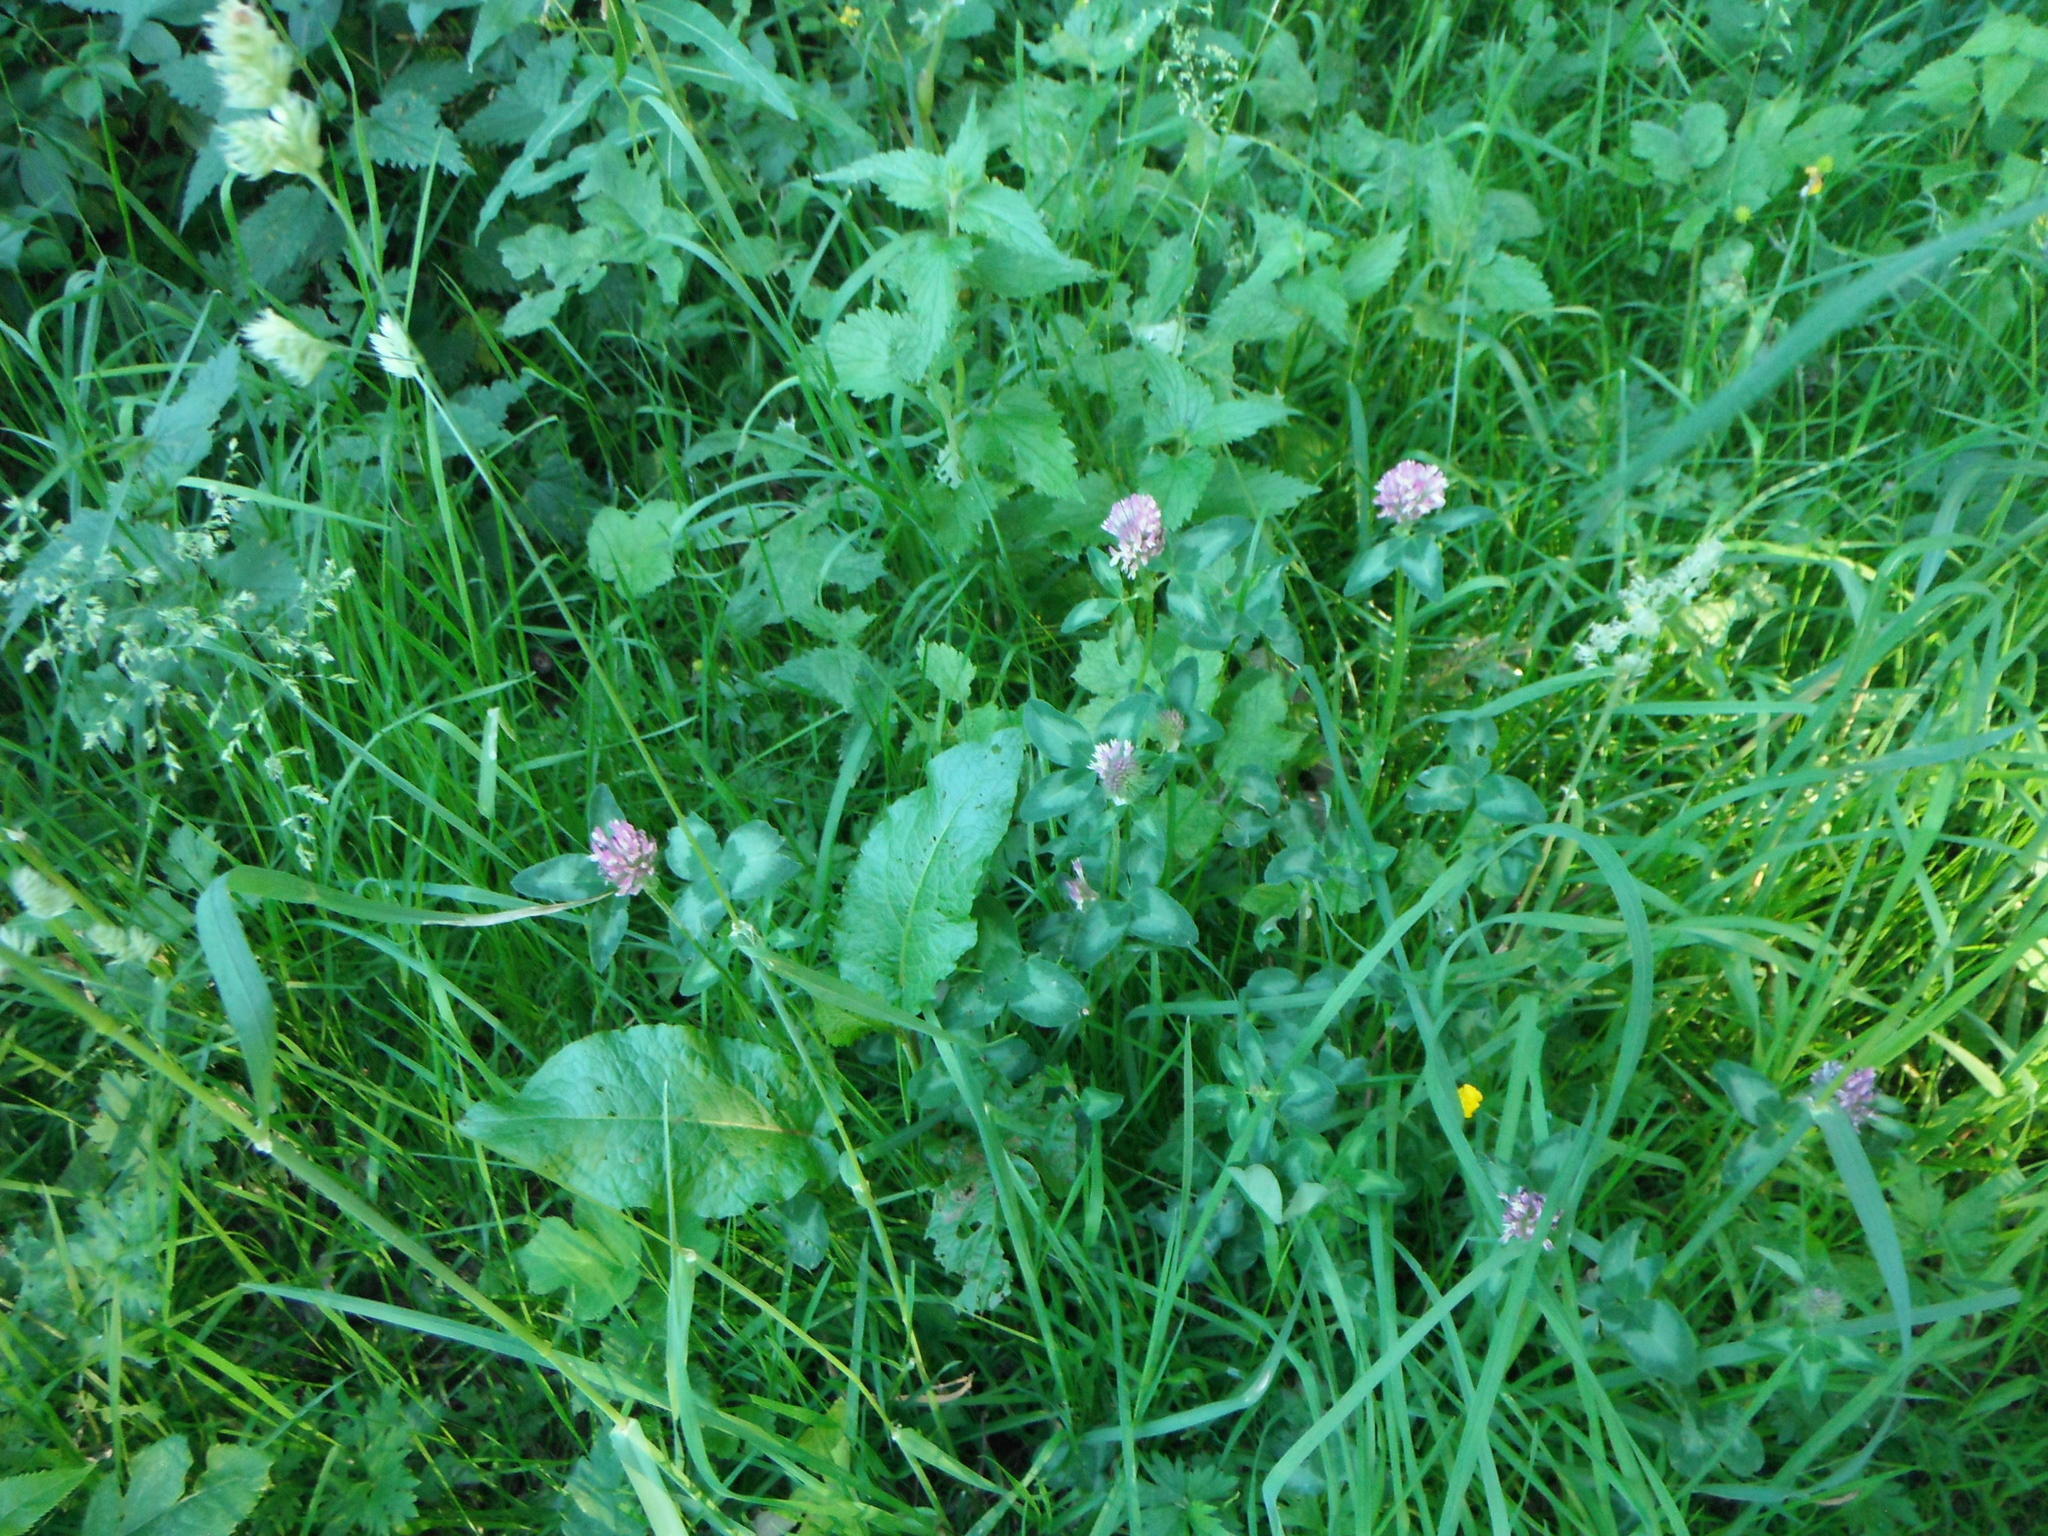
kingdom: Plantae
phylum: Tracheophyta
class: Magnoliopsida
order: Fabales
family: Fabaceae
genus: Trifolium
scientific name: Trifolium pratense
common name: Red clover
